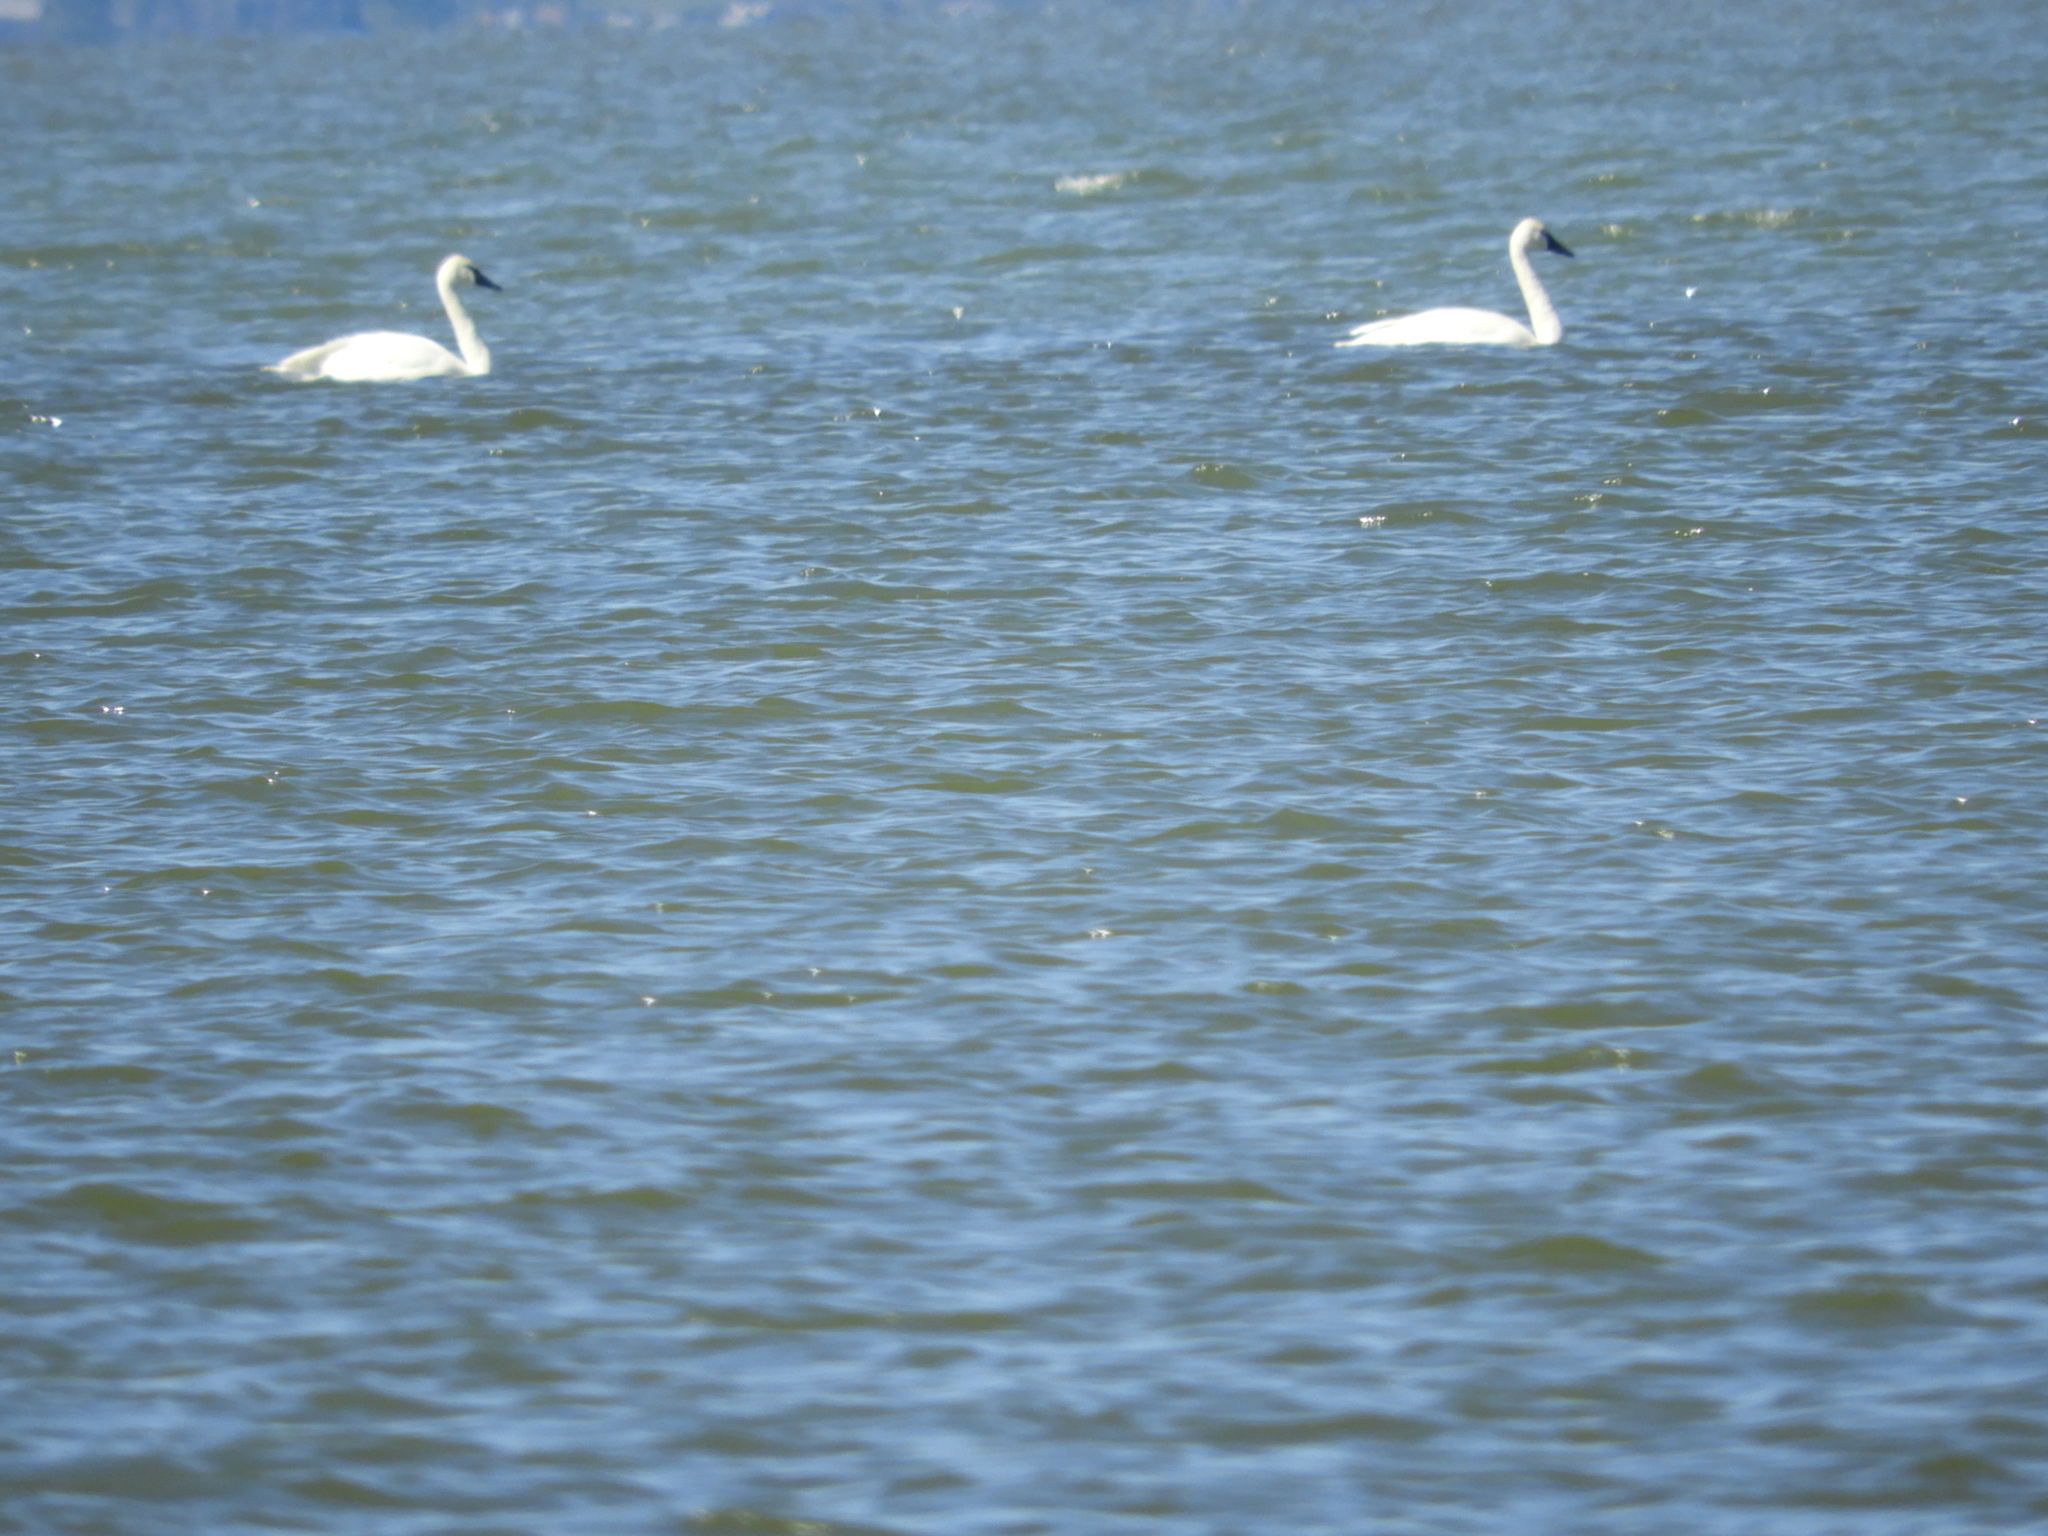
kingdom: Animalia
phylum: Chordata
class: Aves
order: Anseriformes
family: Anatidae
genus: Cygnus
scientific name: Cygnus columbianus
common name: Tundra swan
